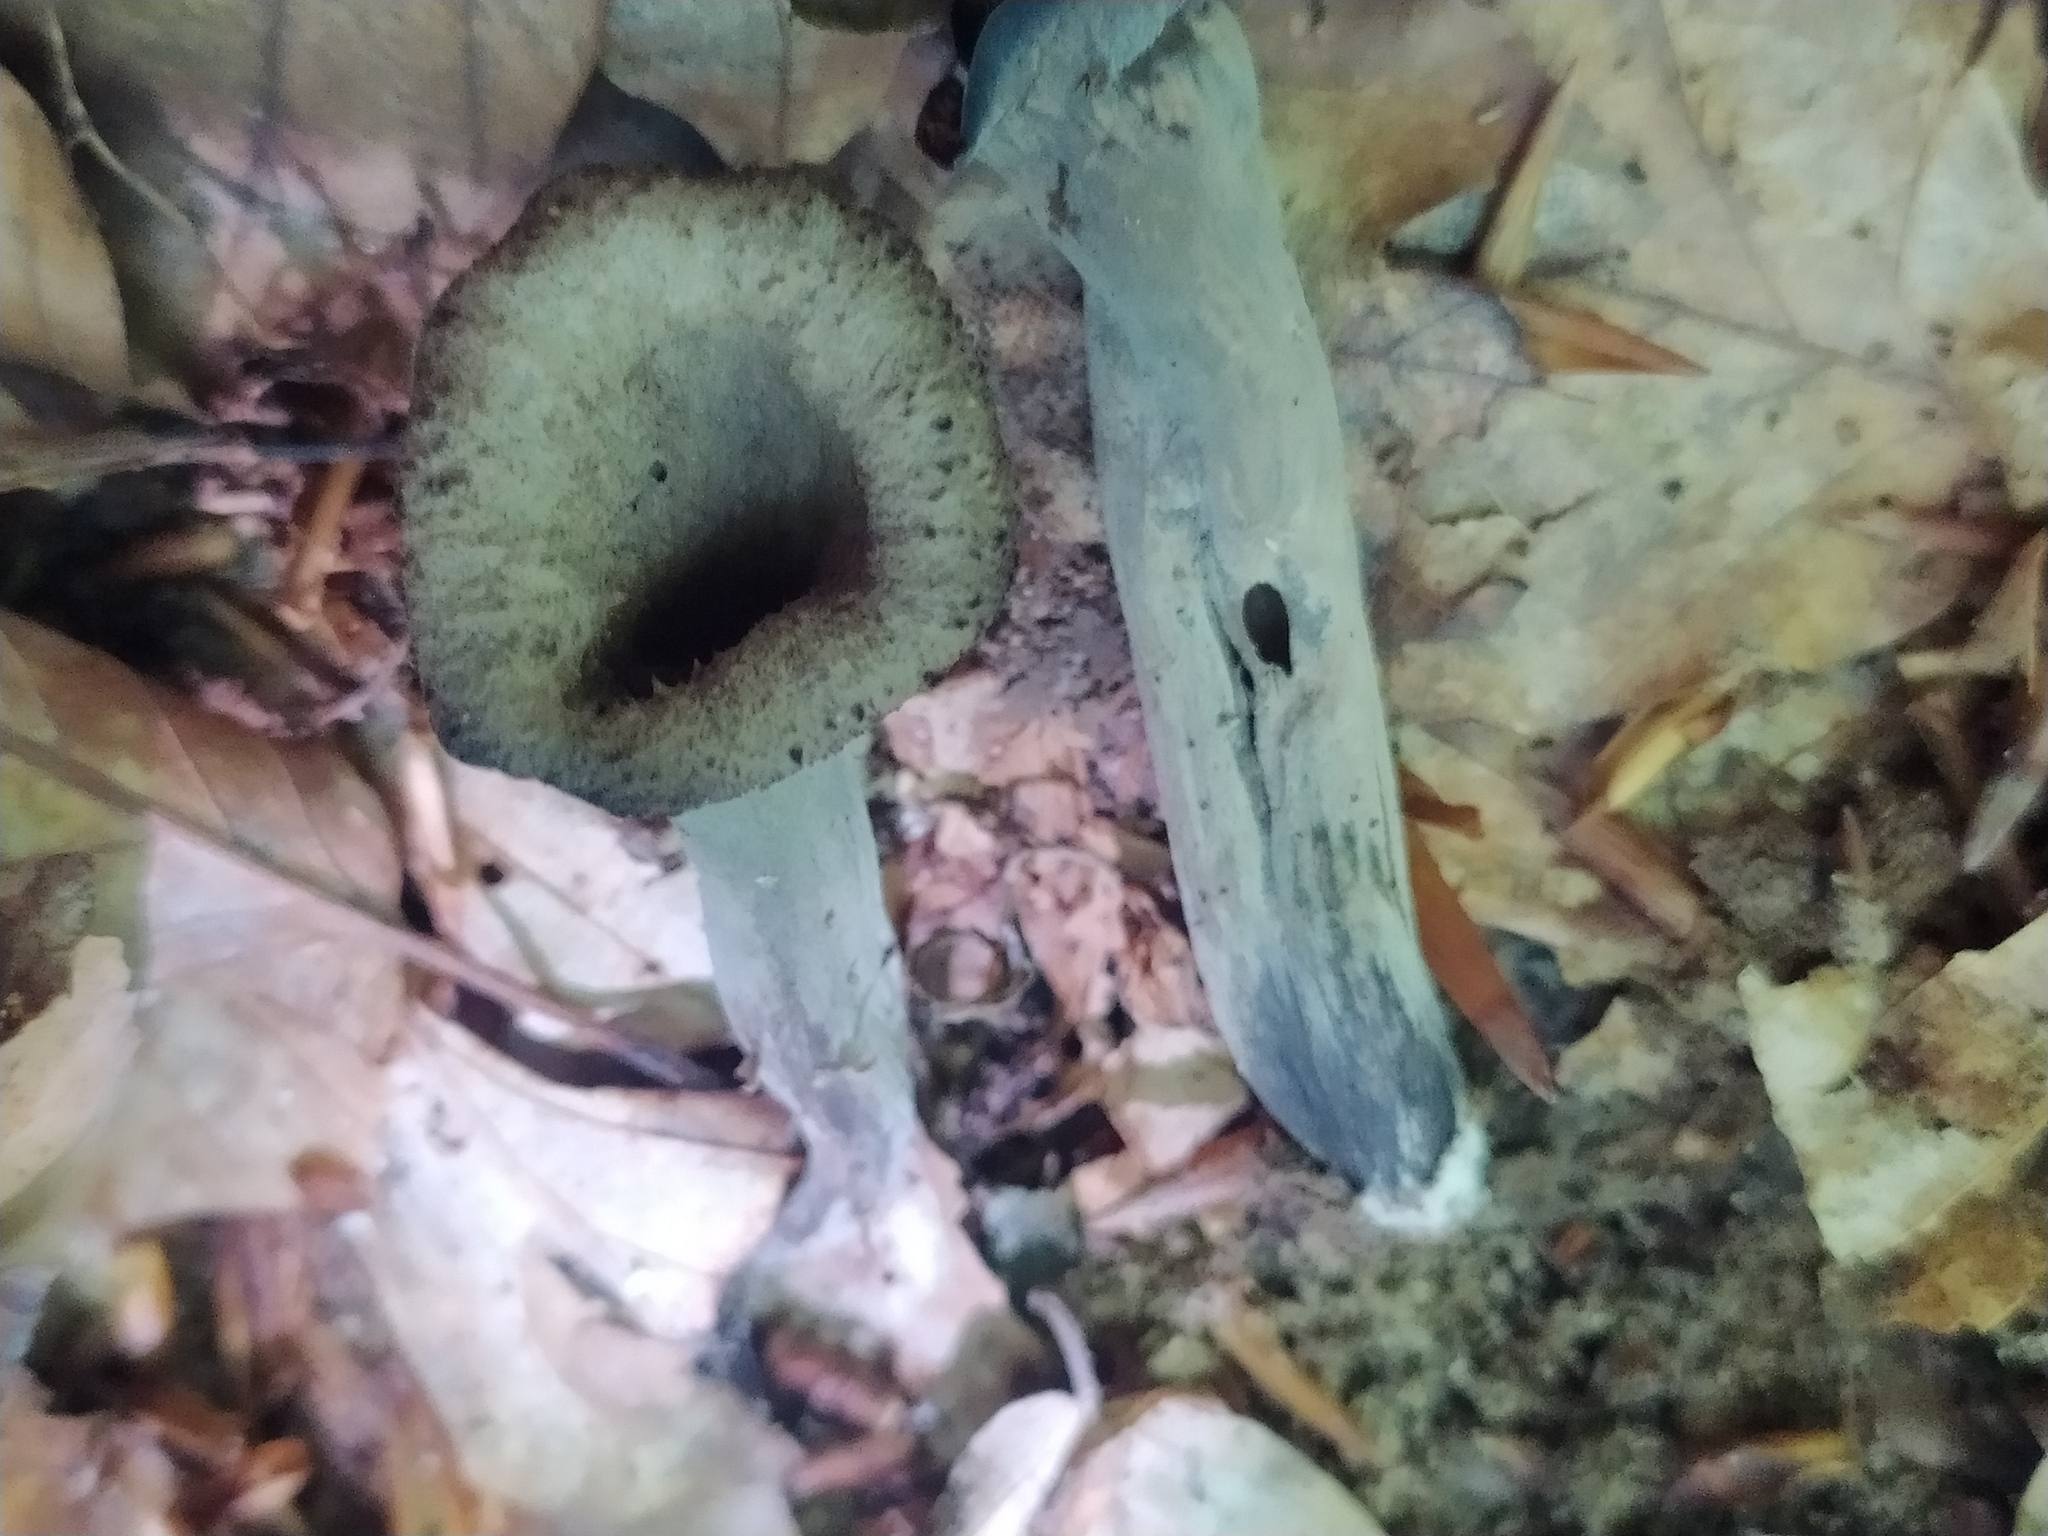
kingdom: Fungi
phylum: Basidiomycota
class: Agaricomycetes
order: Cantharellales
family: Hydnaceae
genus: Craterellus
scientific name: Craterellus cornucopioides
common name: Horn of plenty
